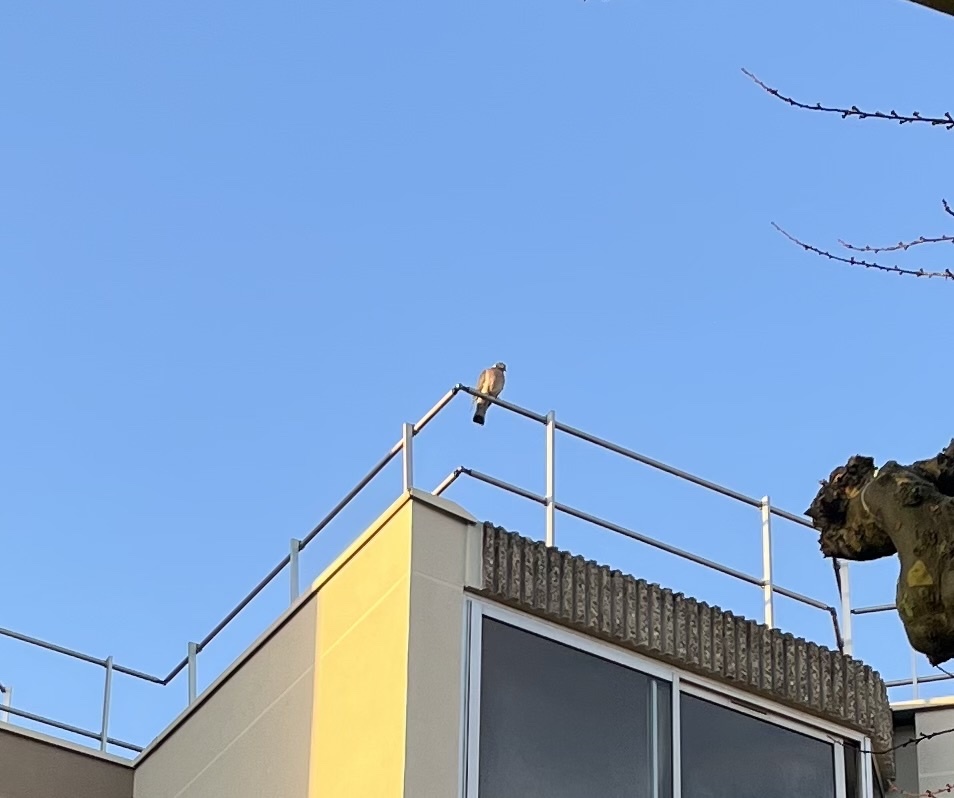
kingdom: Animalia
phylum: Chordata
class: Aves
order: Columbiformes
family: Columbidae
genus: Columba
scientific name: Columba palumbus
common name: Common wood pigeon
